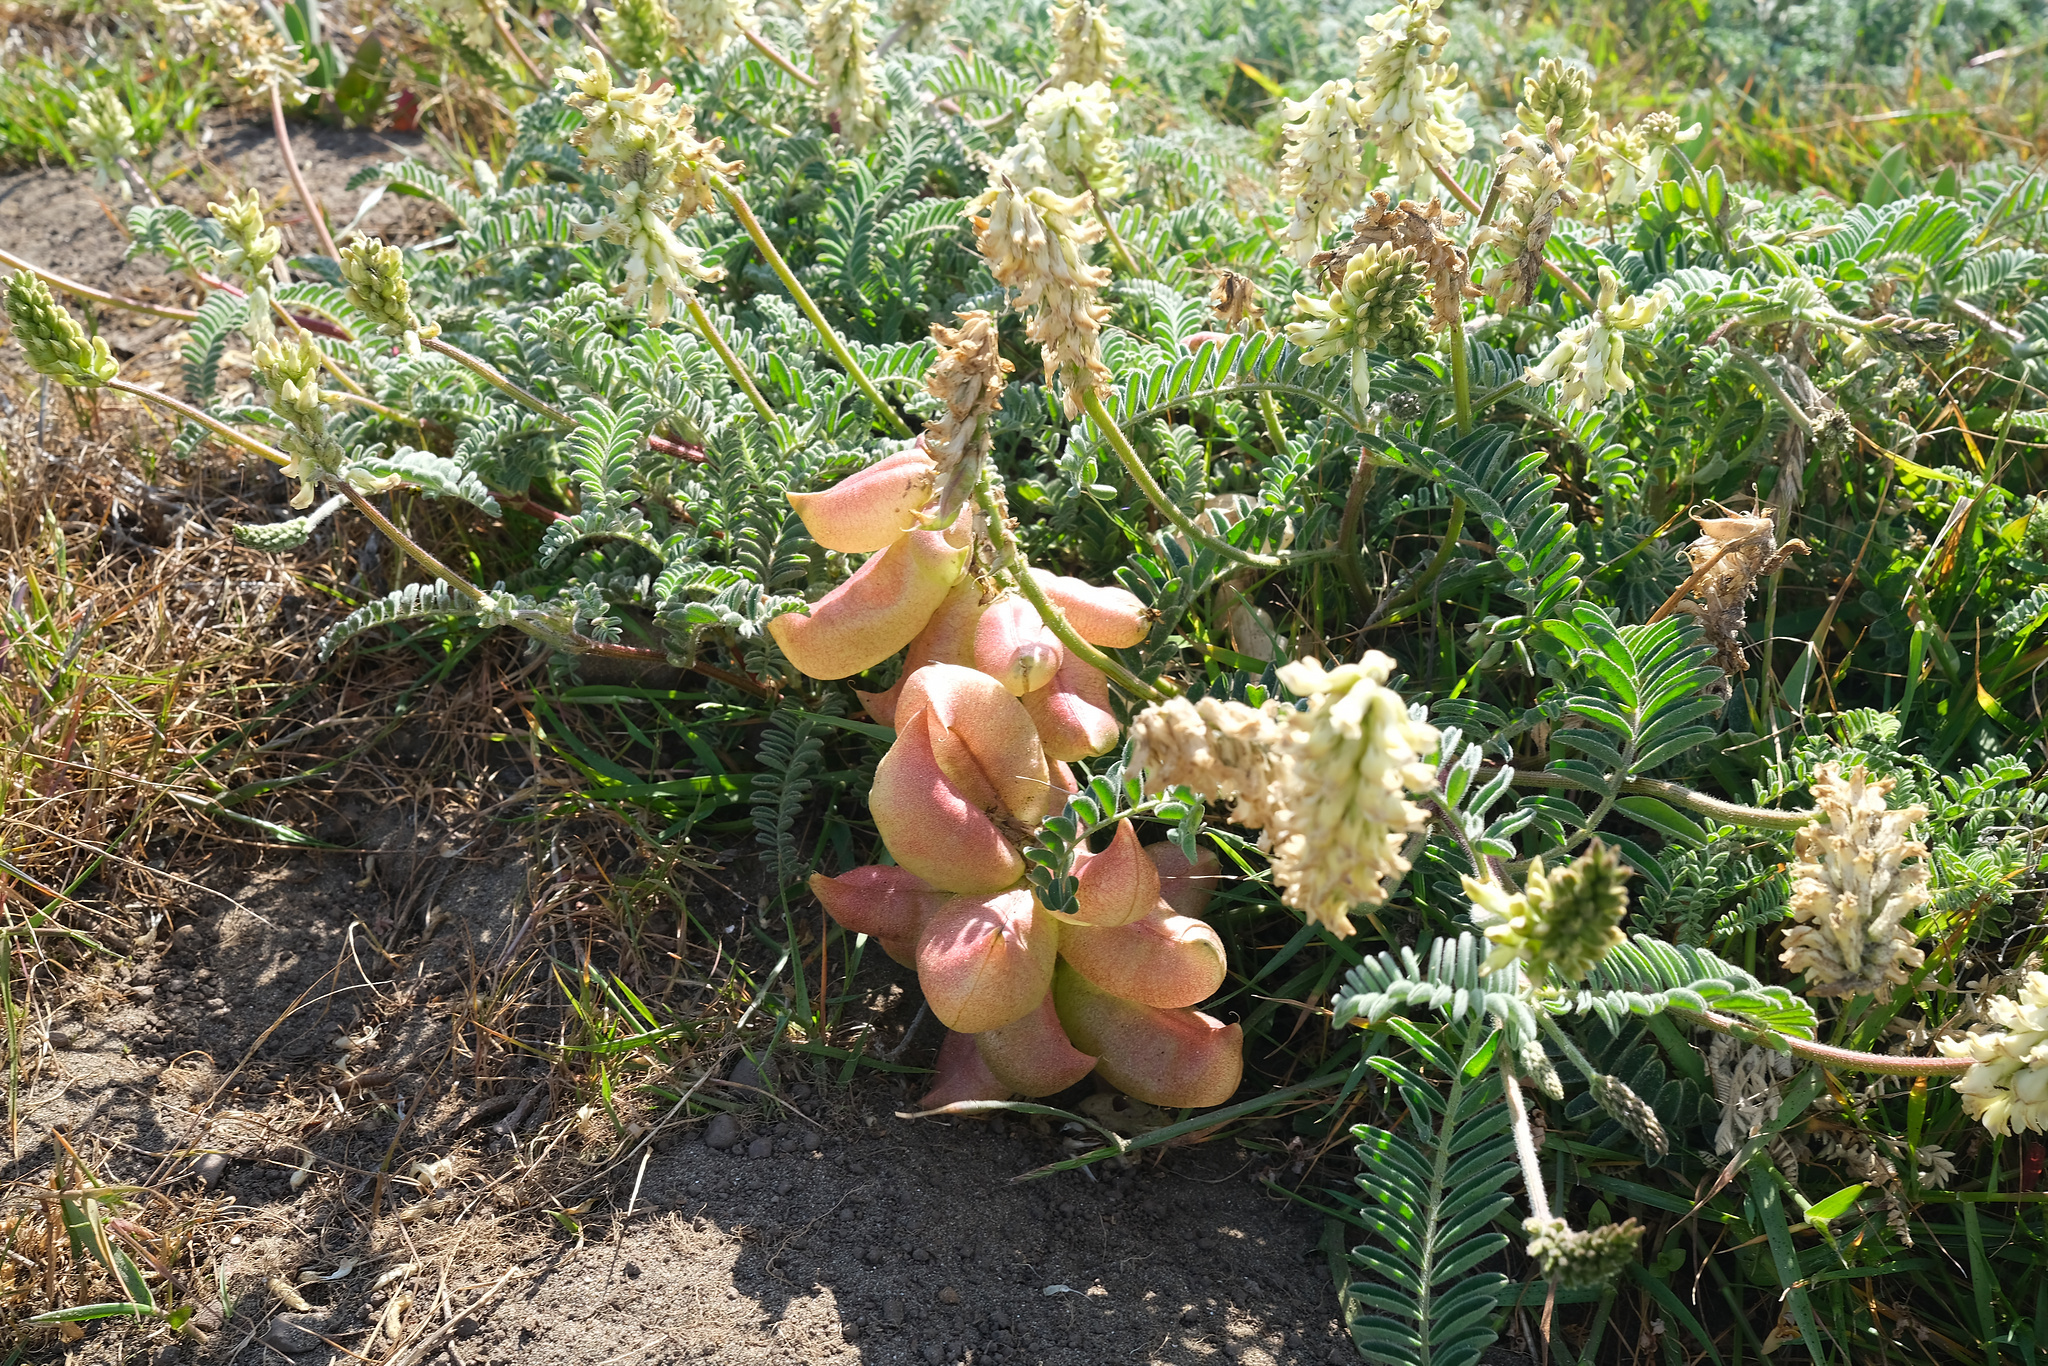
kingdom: Plantae
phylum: Tracheophyta
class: Magnoliopsida
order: Fabales
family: Fabaceae
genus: Astragalus
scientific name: Astragalus nuttallii
